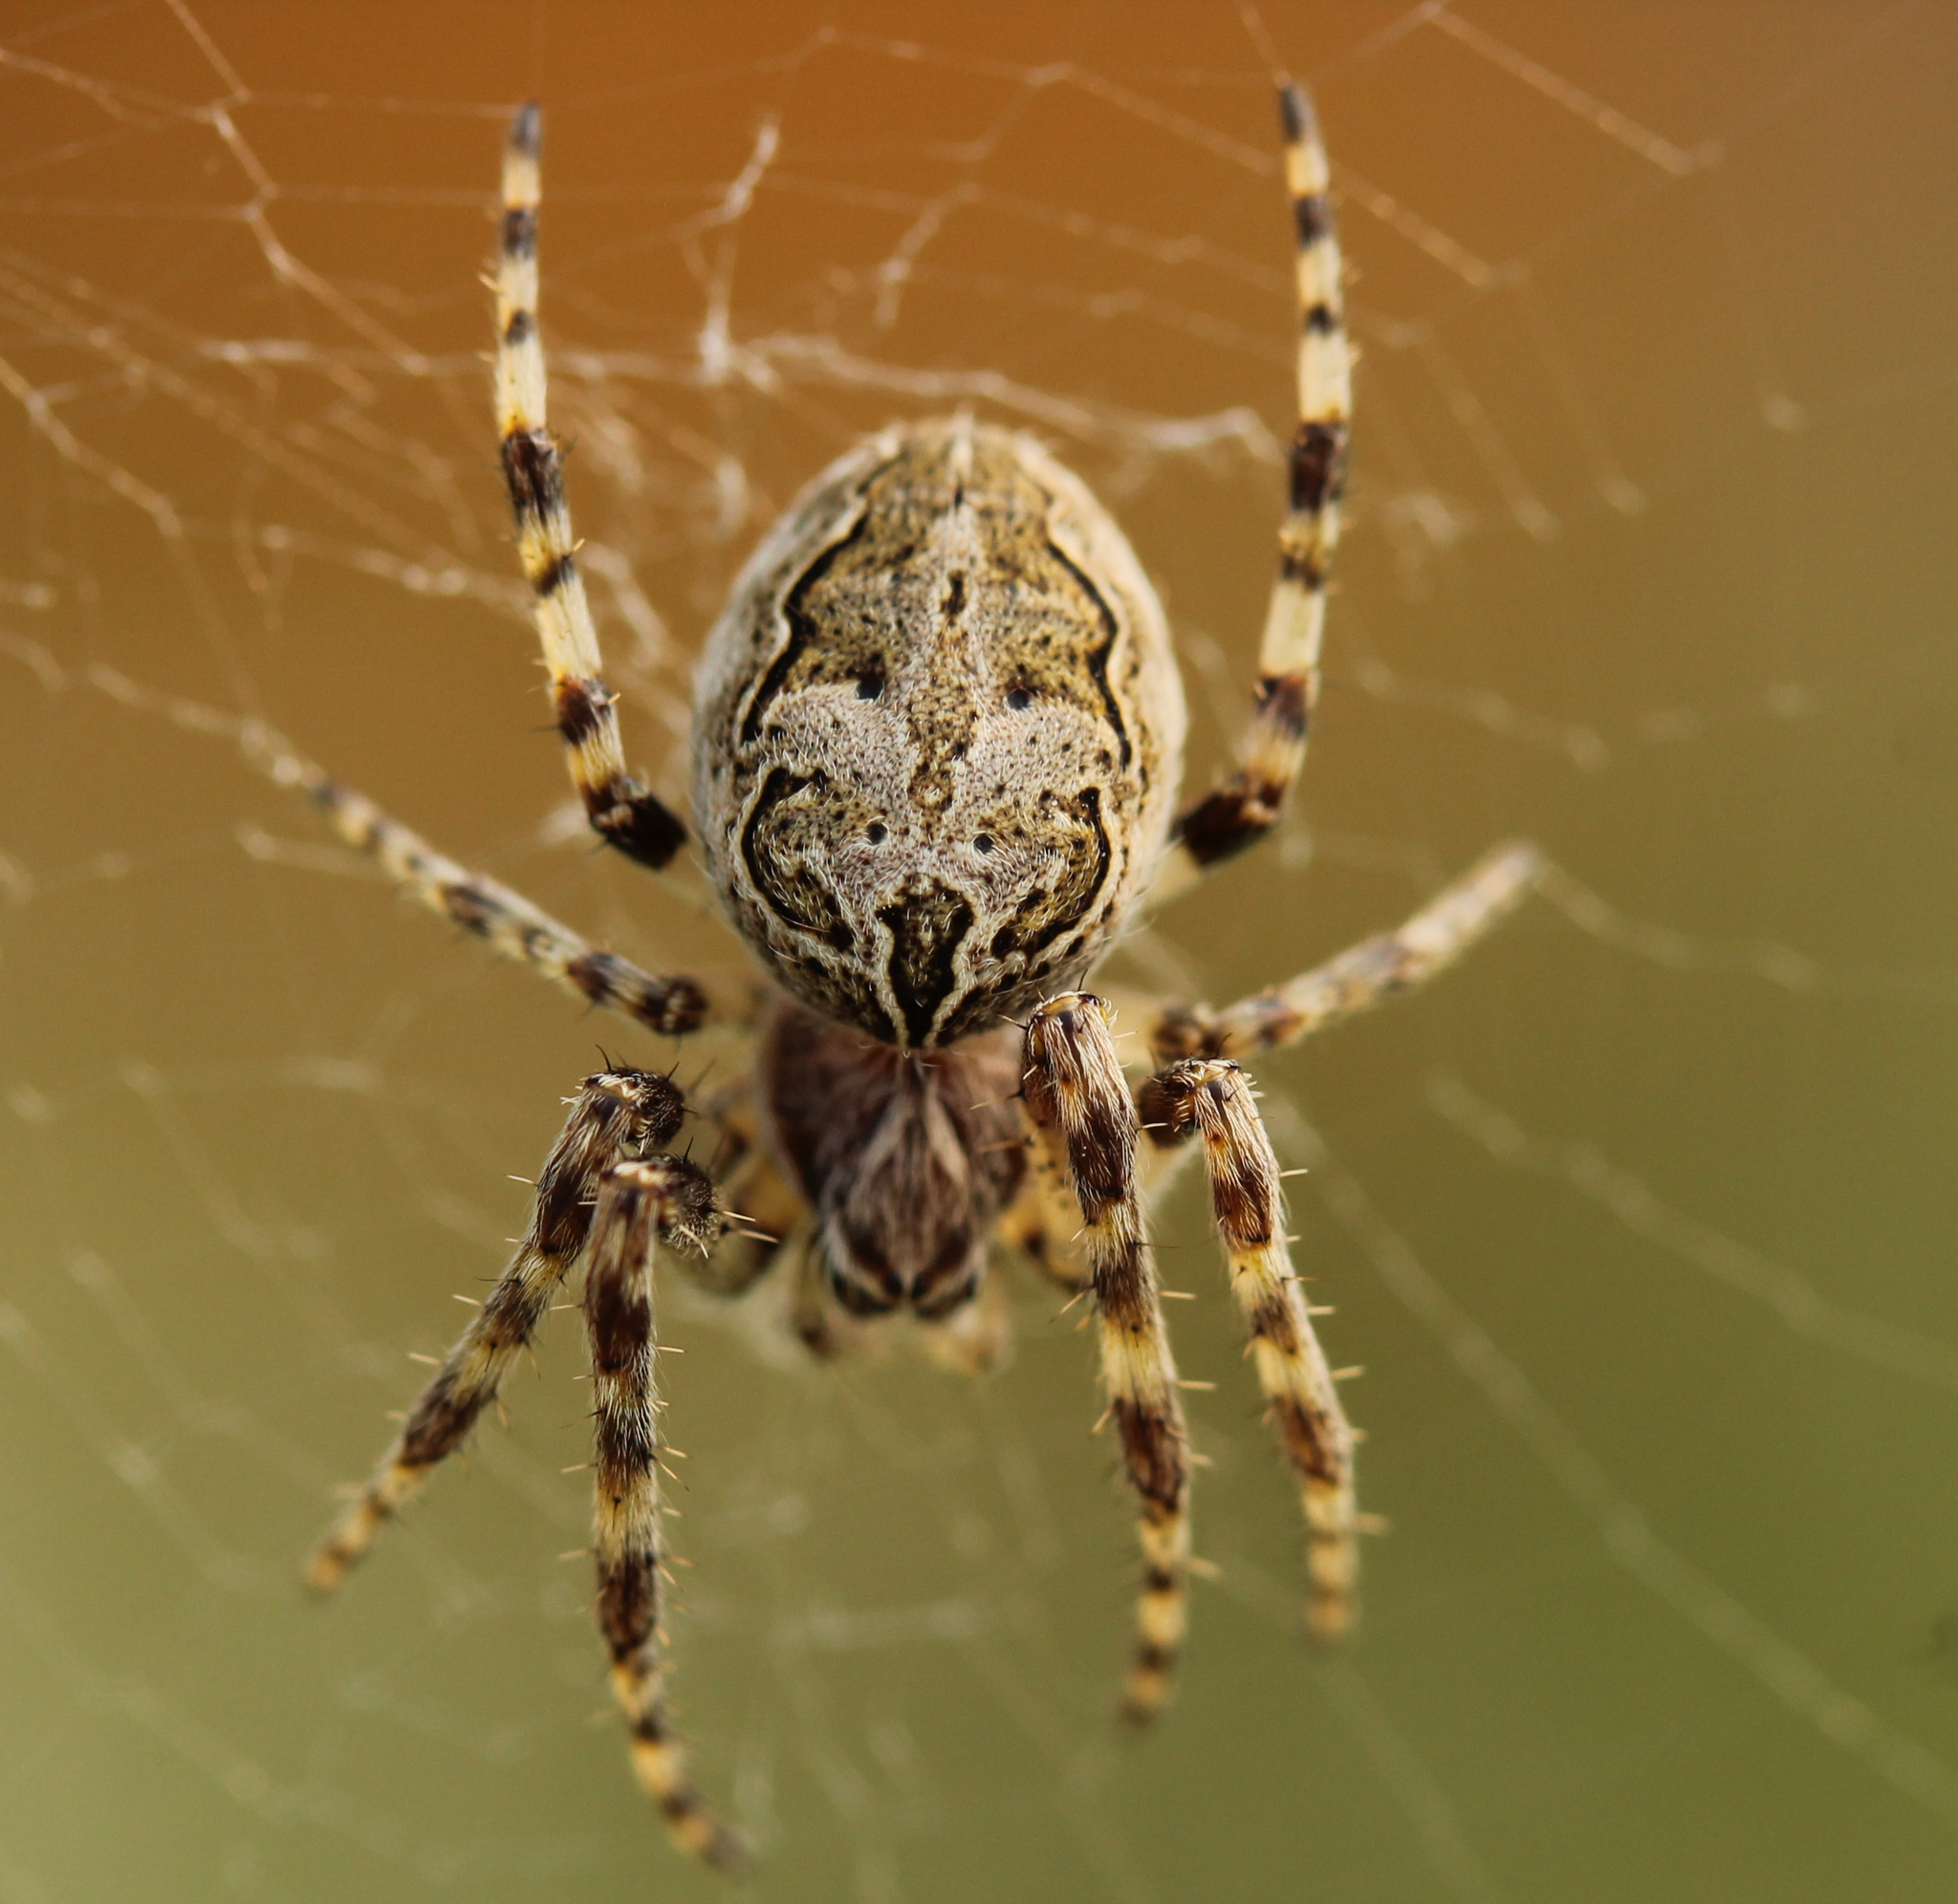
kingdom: Animalia
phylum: Arthropoda
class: Arachnida
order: Araneae
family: Araneidae
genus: Larinioides
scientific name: Larinioides sclopetarius
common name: Bridge orbweaver
